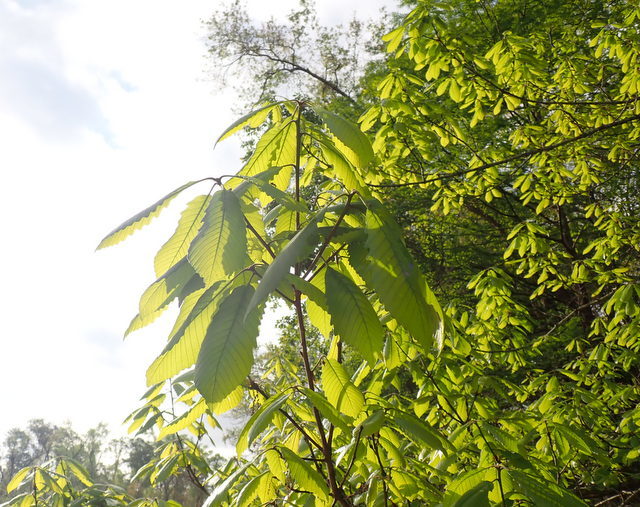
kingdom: Plantae
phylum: Tracheophyta
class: Magnoliopsida
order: Fagales
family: Fagaceae
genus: Quercus
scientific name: Quercus michauxii
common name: Swamp chestnut oak
